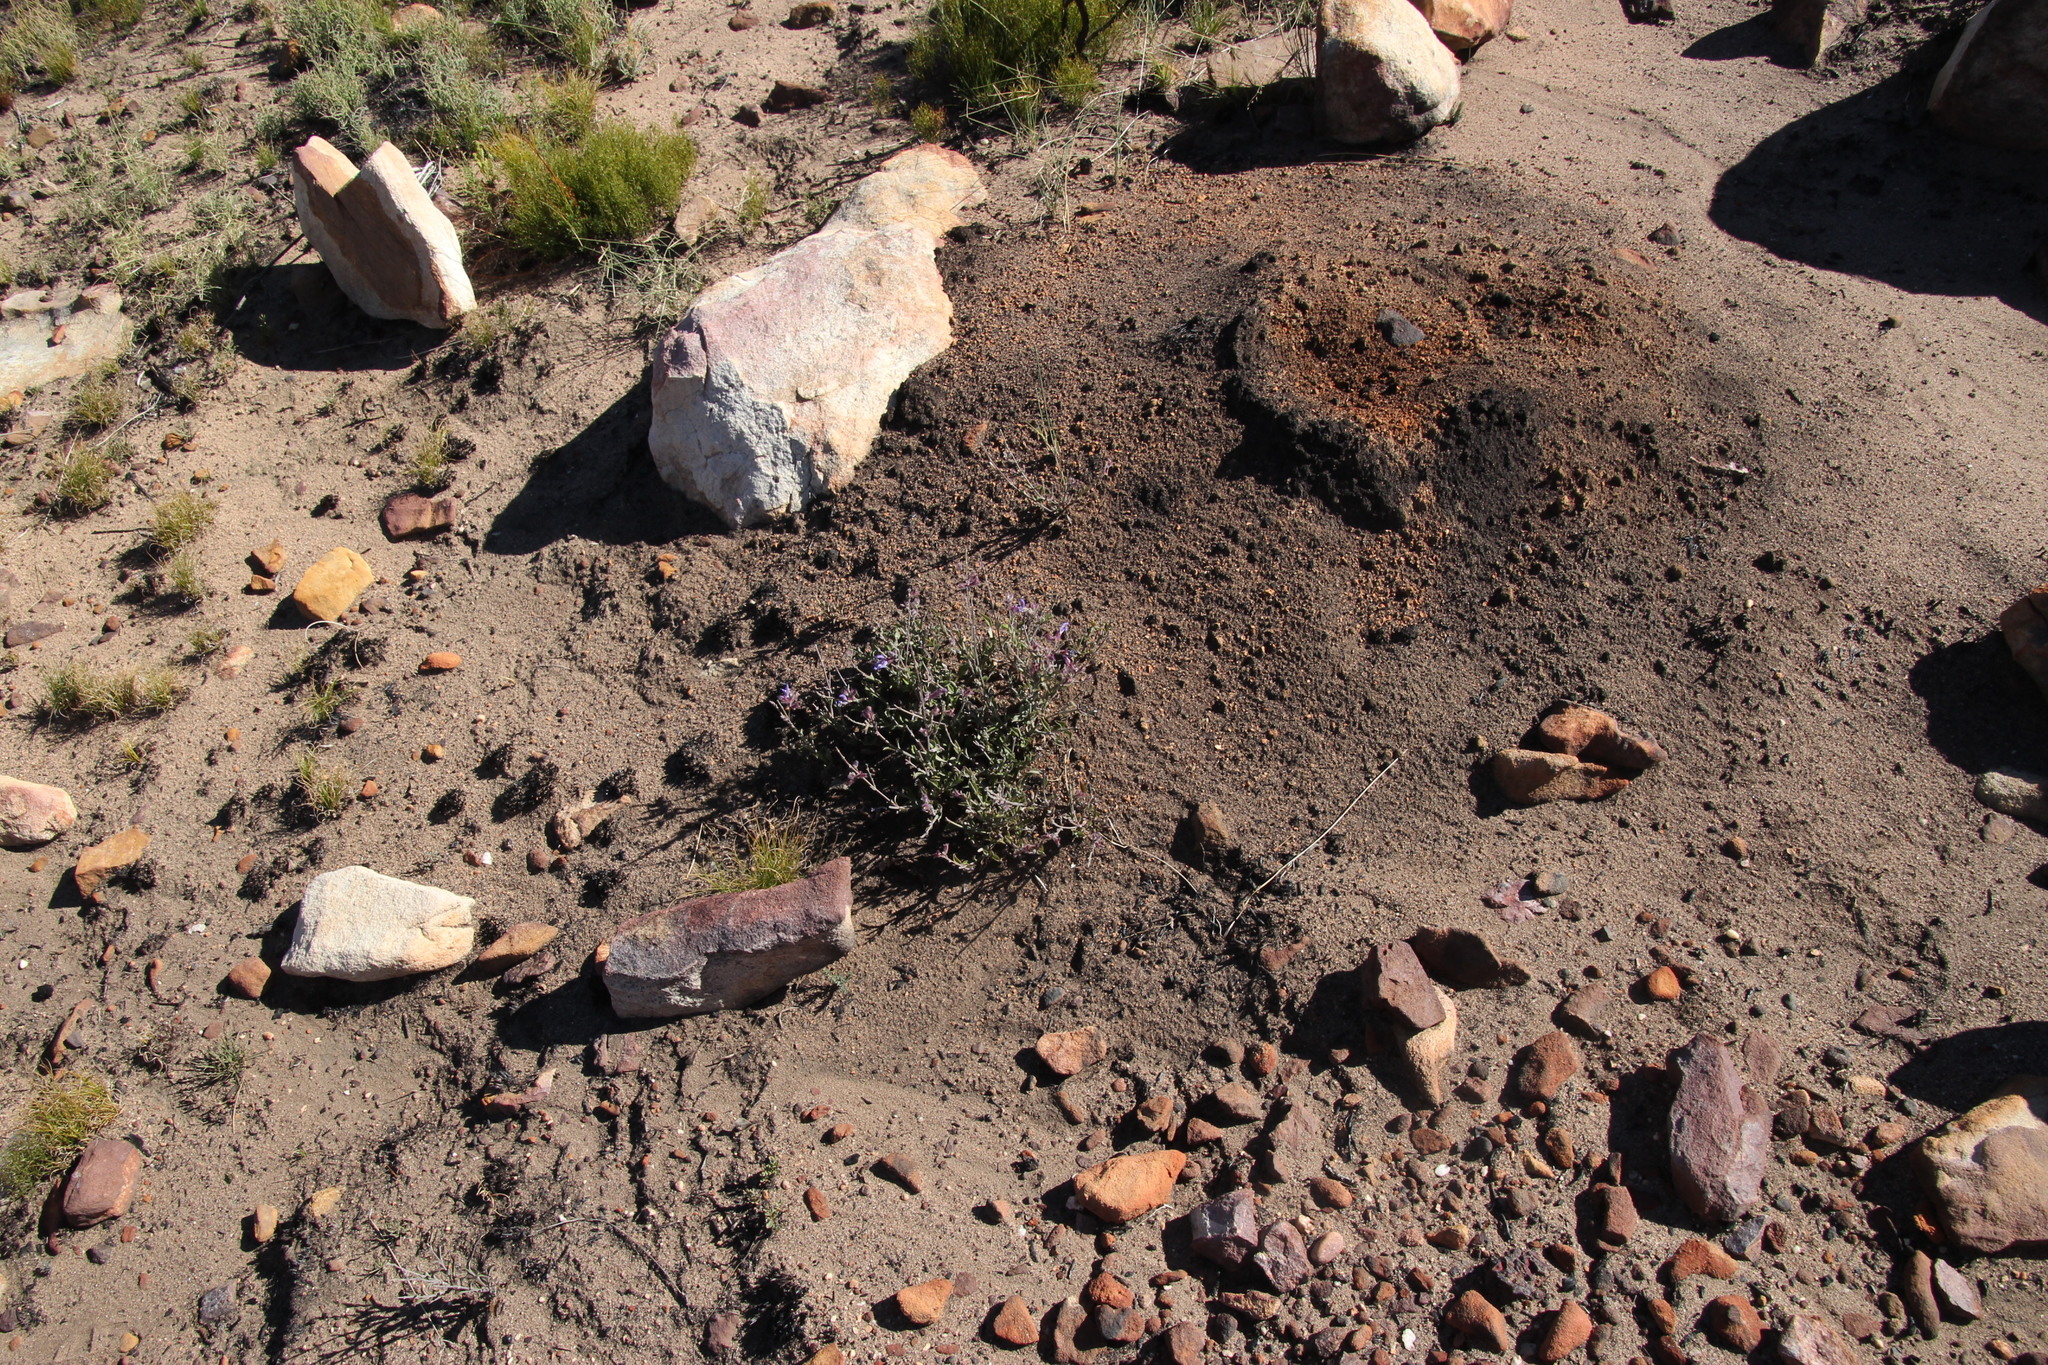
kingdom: Plantae
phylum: Tracheophyta
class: Magnoliopsida
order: Lamiales
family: Lamiaceae
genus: Salvia
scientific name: Salvia albicaulis
